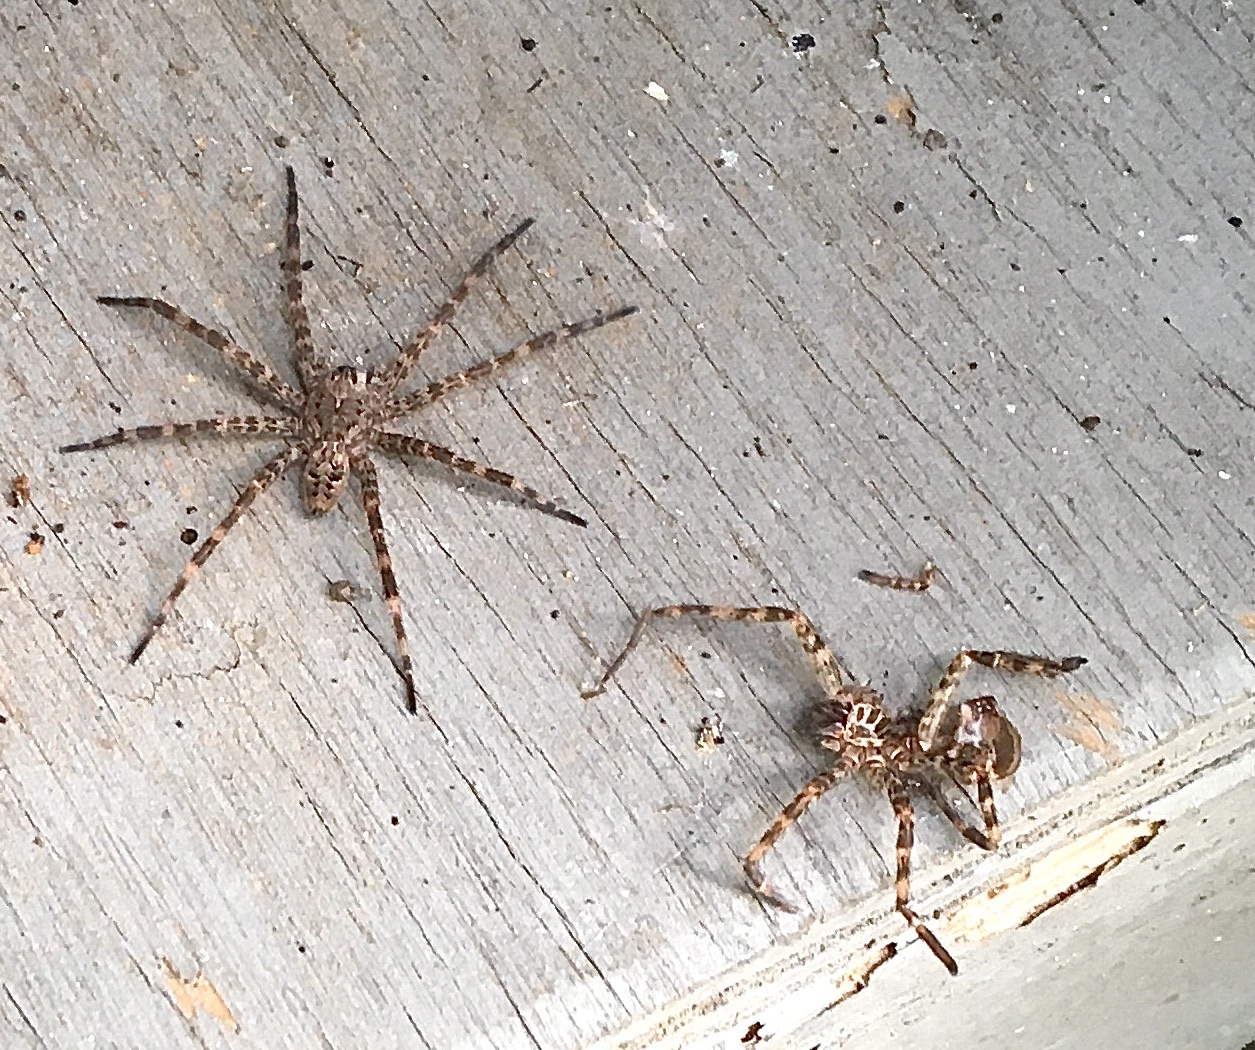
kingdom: Animalia
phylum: Arthropoda
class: Arachnida
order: Araneae
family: Pisauridae
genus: Dolomedes
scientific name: Dolomedes tenebrosus
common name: Dark fishing spider
